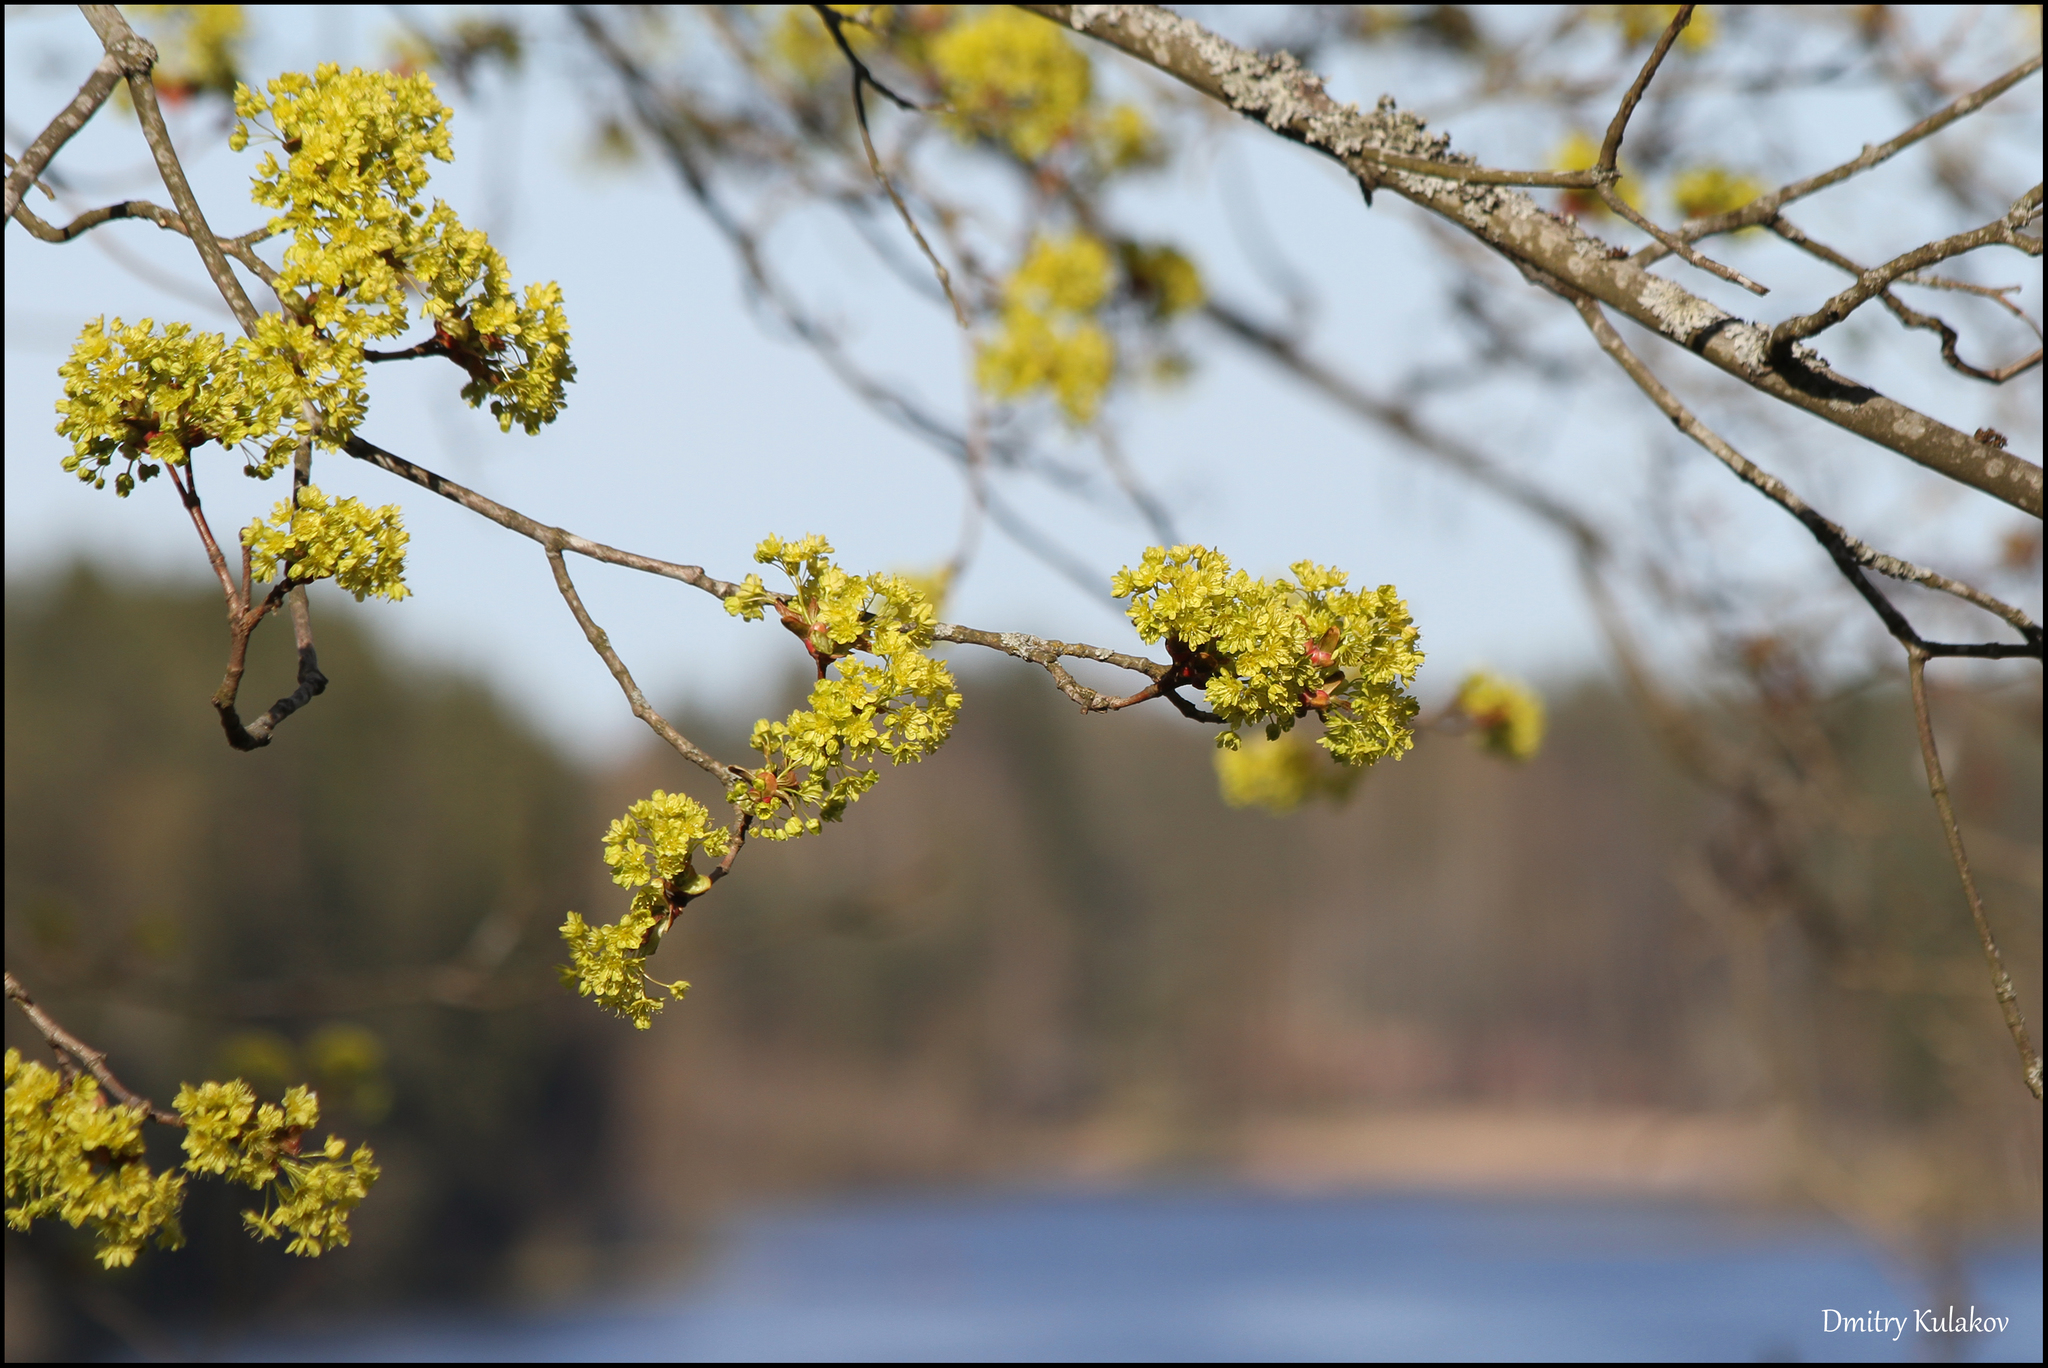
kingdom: Plantae
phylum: Tracheophyta
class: Magnoliopsida
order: Sapindales
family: Sapindaceae
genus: Acer
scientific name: Acer platanoides
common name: Norway maple
